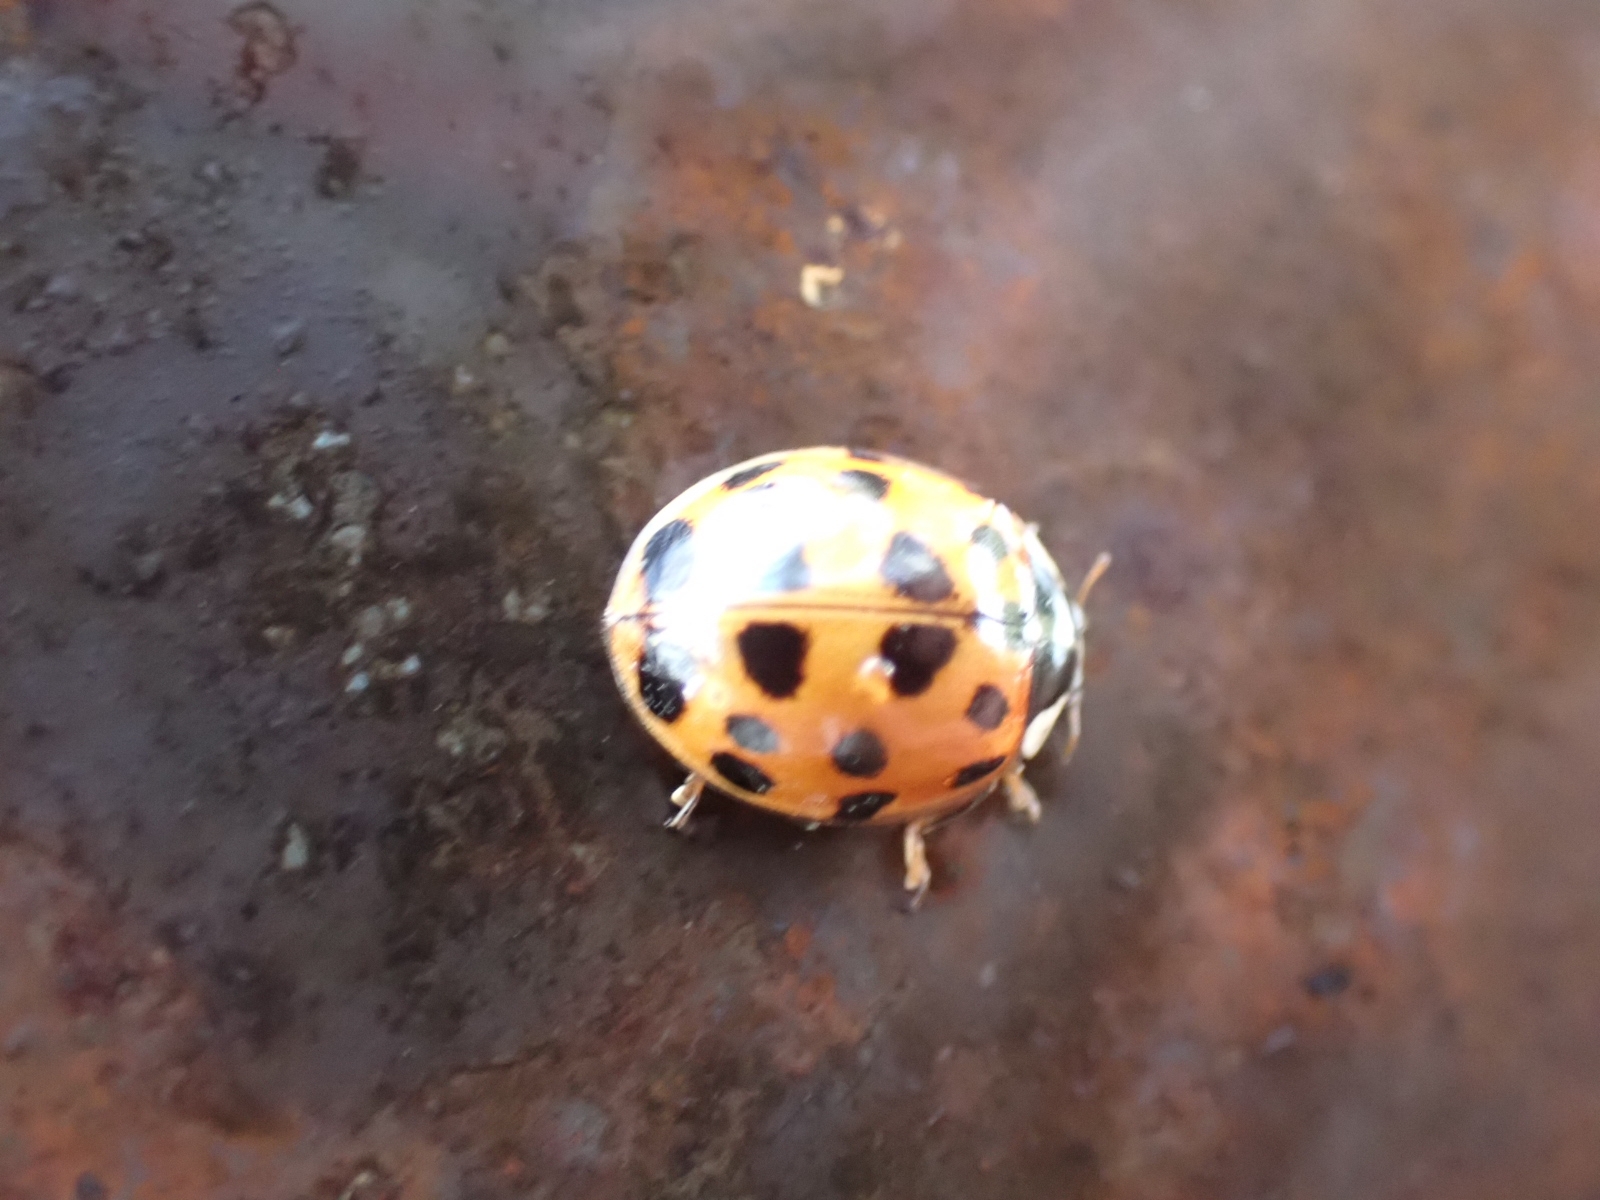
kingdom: Animalia
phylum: Arthropoda
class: Insecta
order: Coleoptera
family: Coccinellidae
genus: Harmonia
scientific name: Harmonia axyridis
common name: Harlequin ladybird
